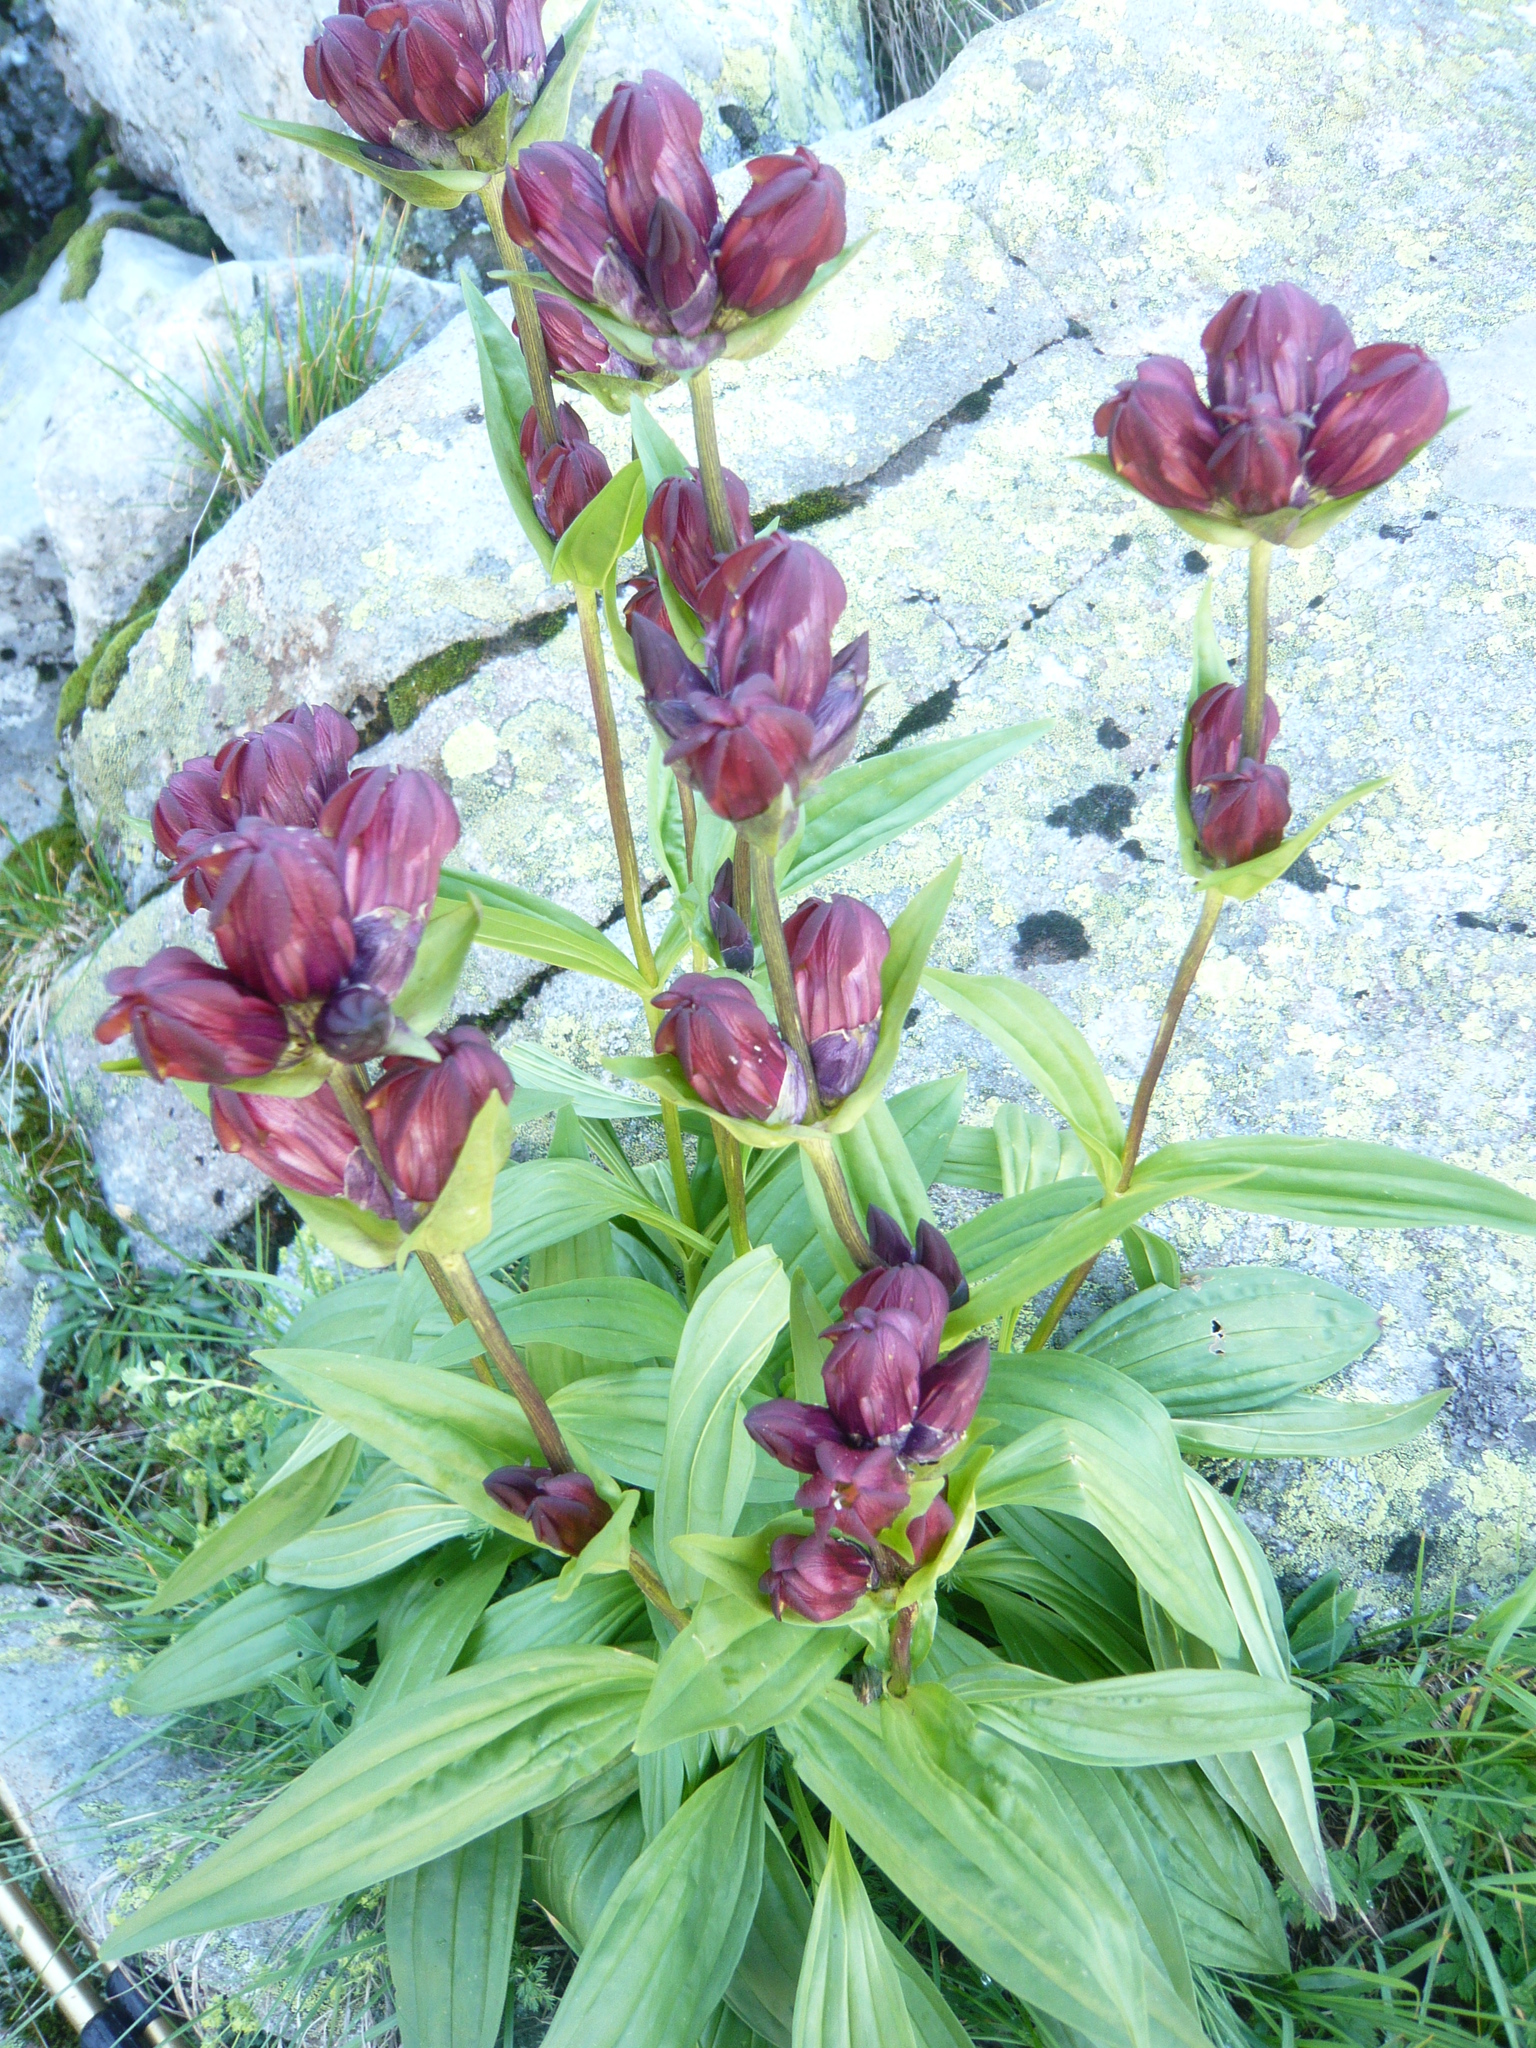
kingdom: Plantae
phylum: Tracheophyta
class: Magnoliopsida
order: Gentianales
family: Gentianaceae
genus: Gentiana
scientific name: Gentiana purpurea
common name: Purple gentian
